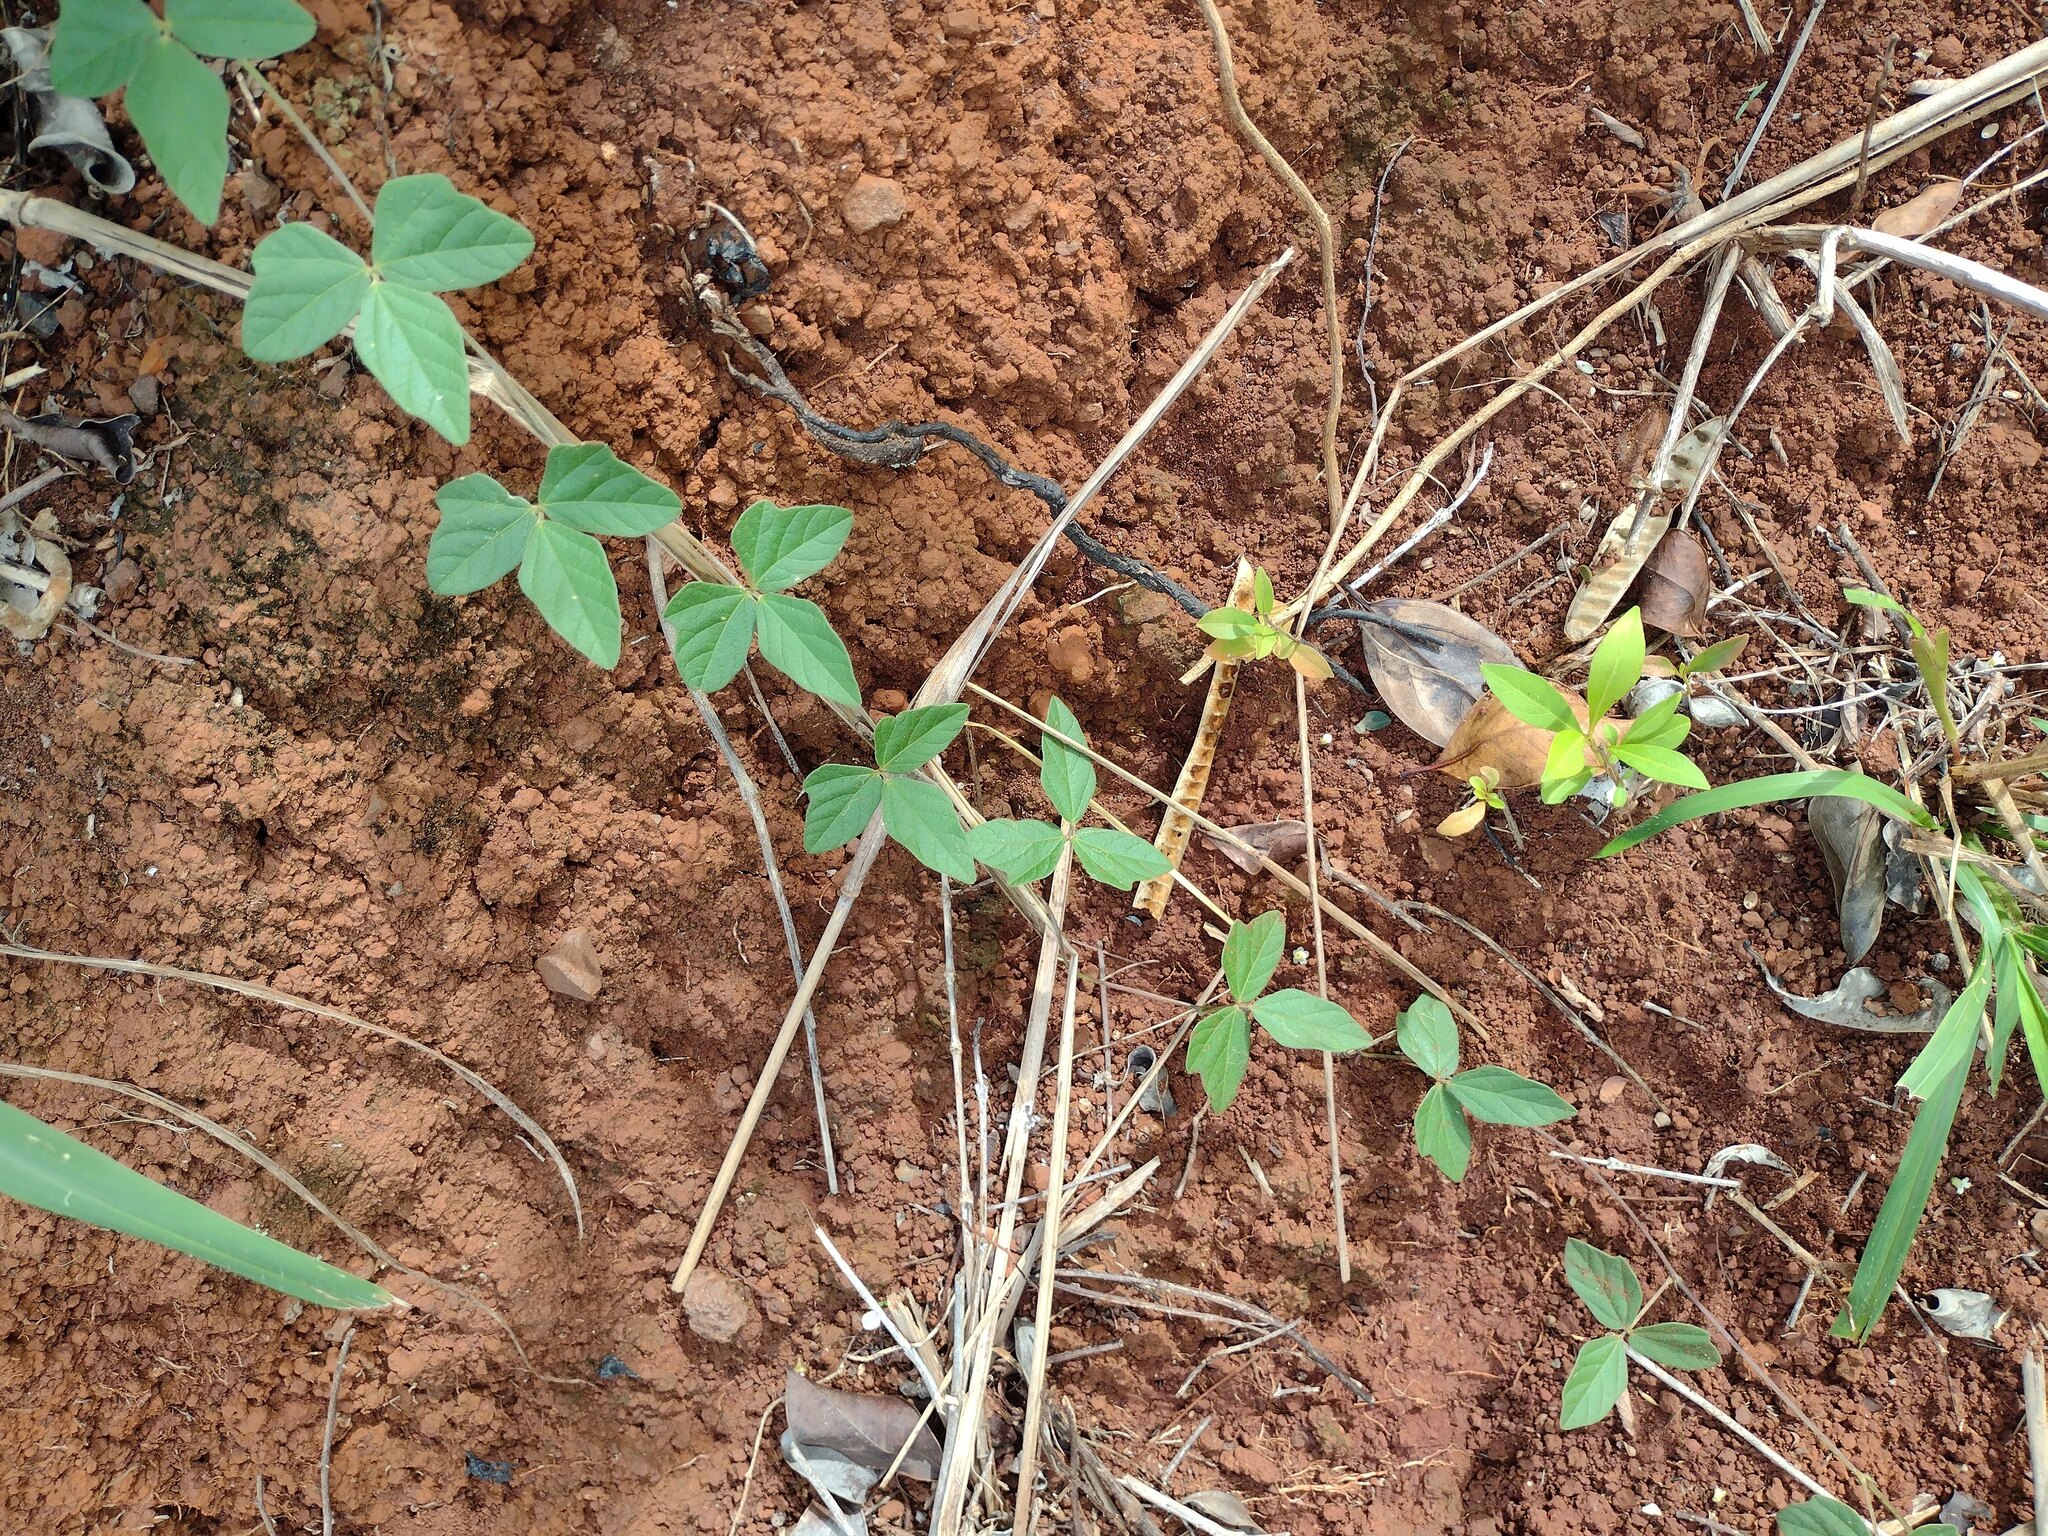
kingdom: Plantae
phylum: Tracheophyta
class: Magnoliopsida
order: Fabales
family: Fabaceae
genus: Macroptilium
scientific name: Macroptilium atropurpureum
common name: Purple bushbean
